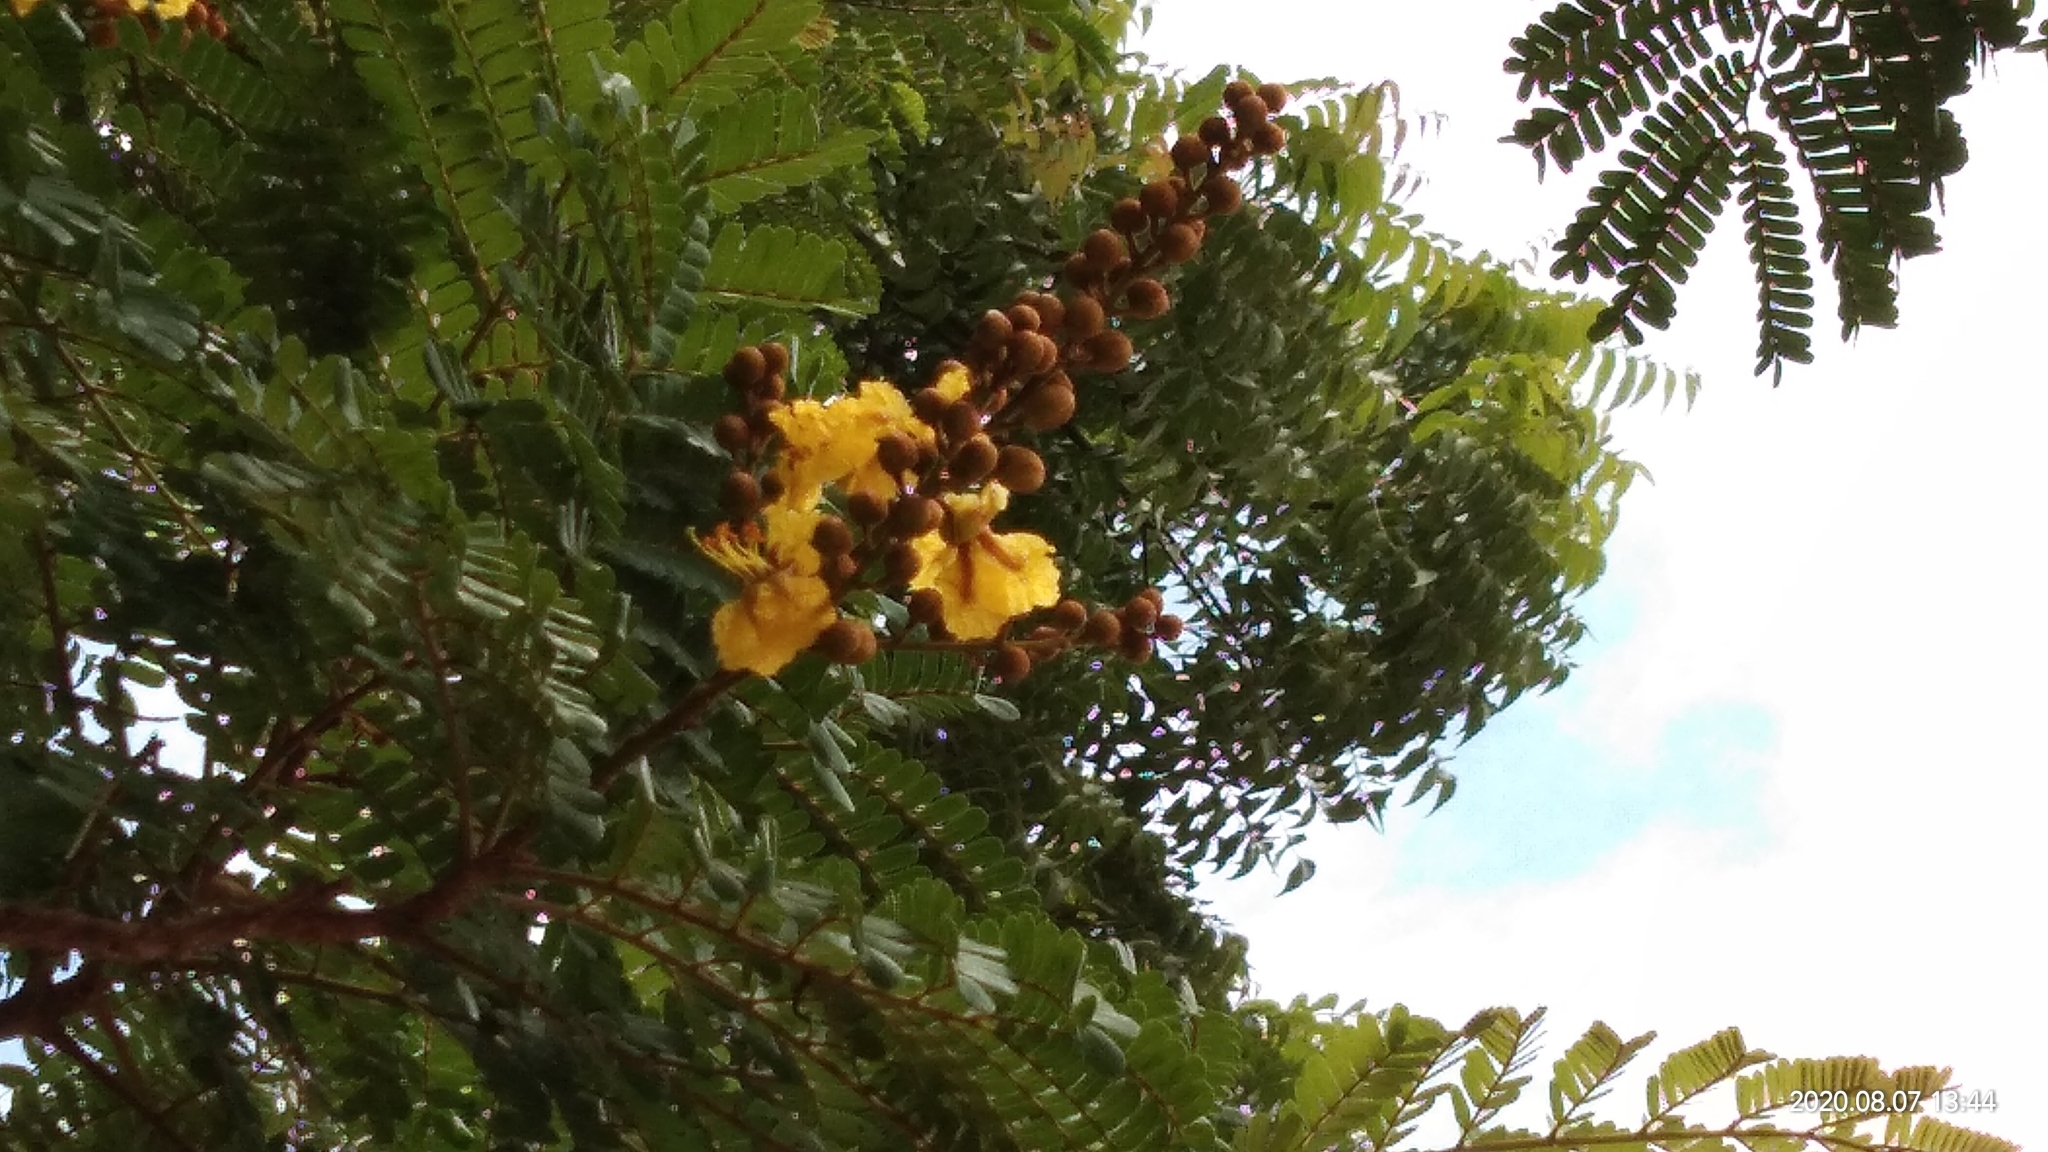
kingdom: Plantae
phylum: Tracheophyta
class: Magnoliopsida
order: Fabales
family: Fabaceae
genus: Peltophorum
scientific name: Peltophorum pterocarpum
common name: Yellow flame
